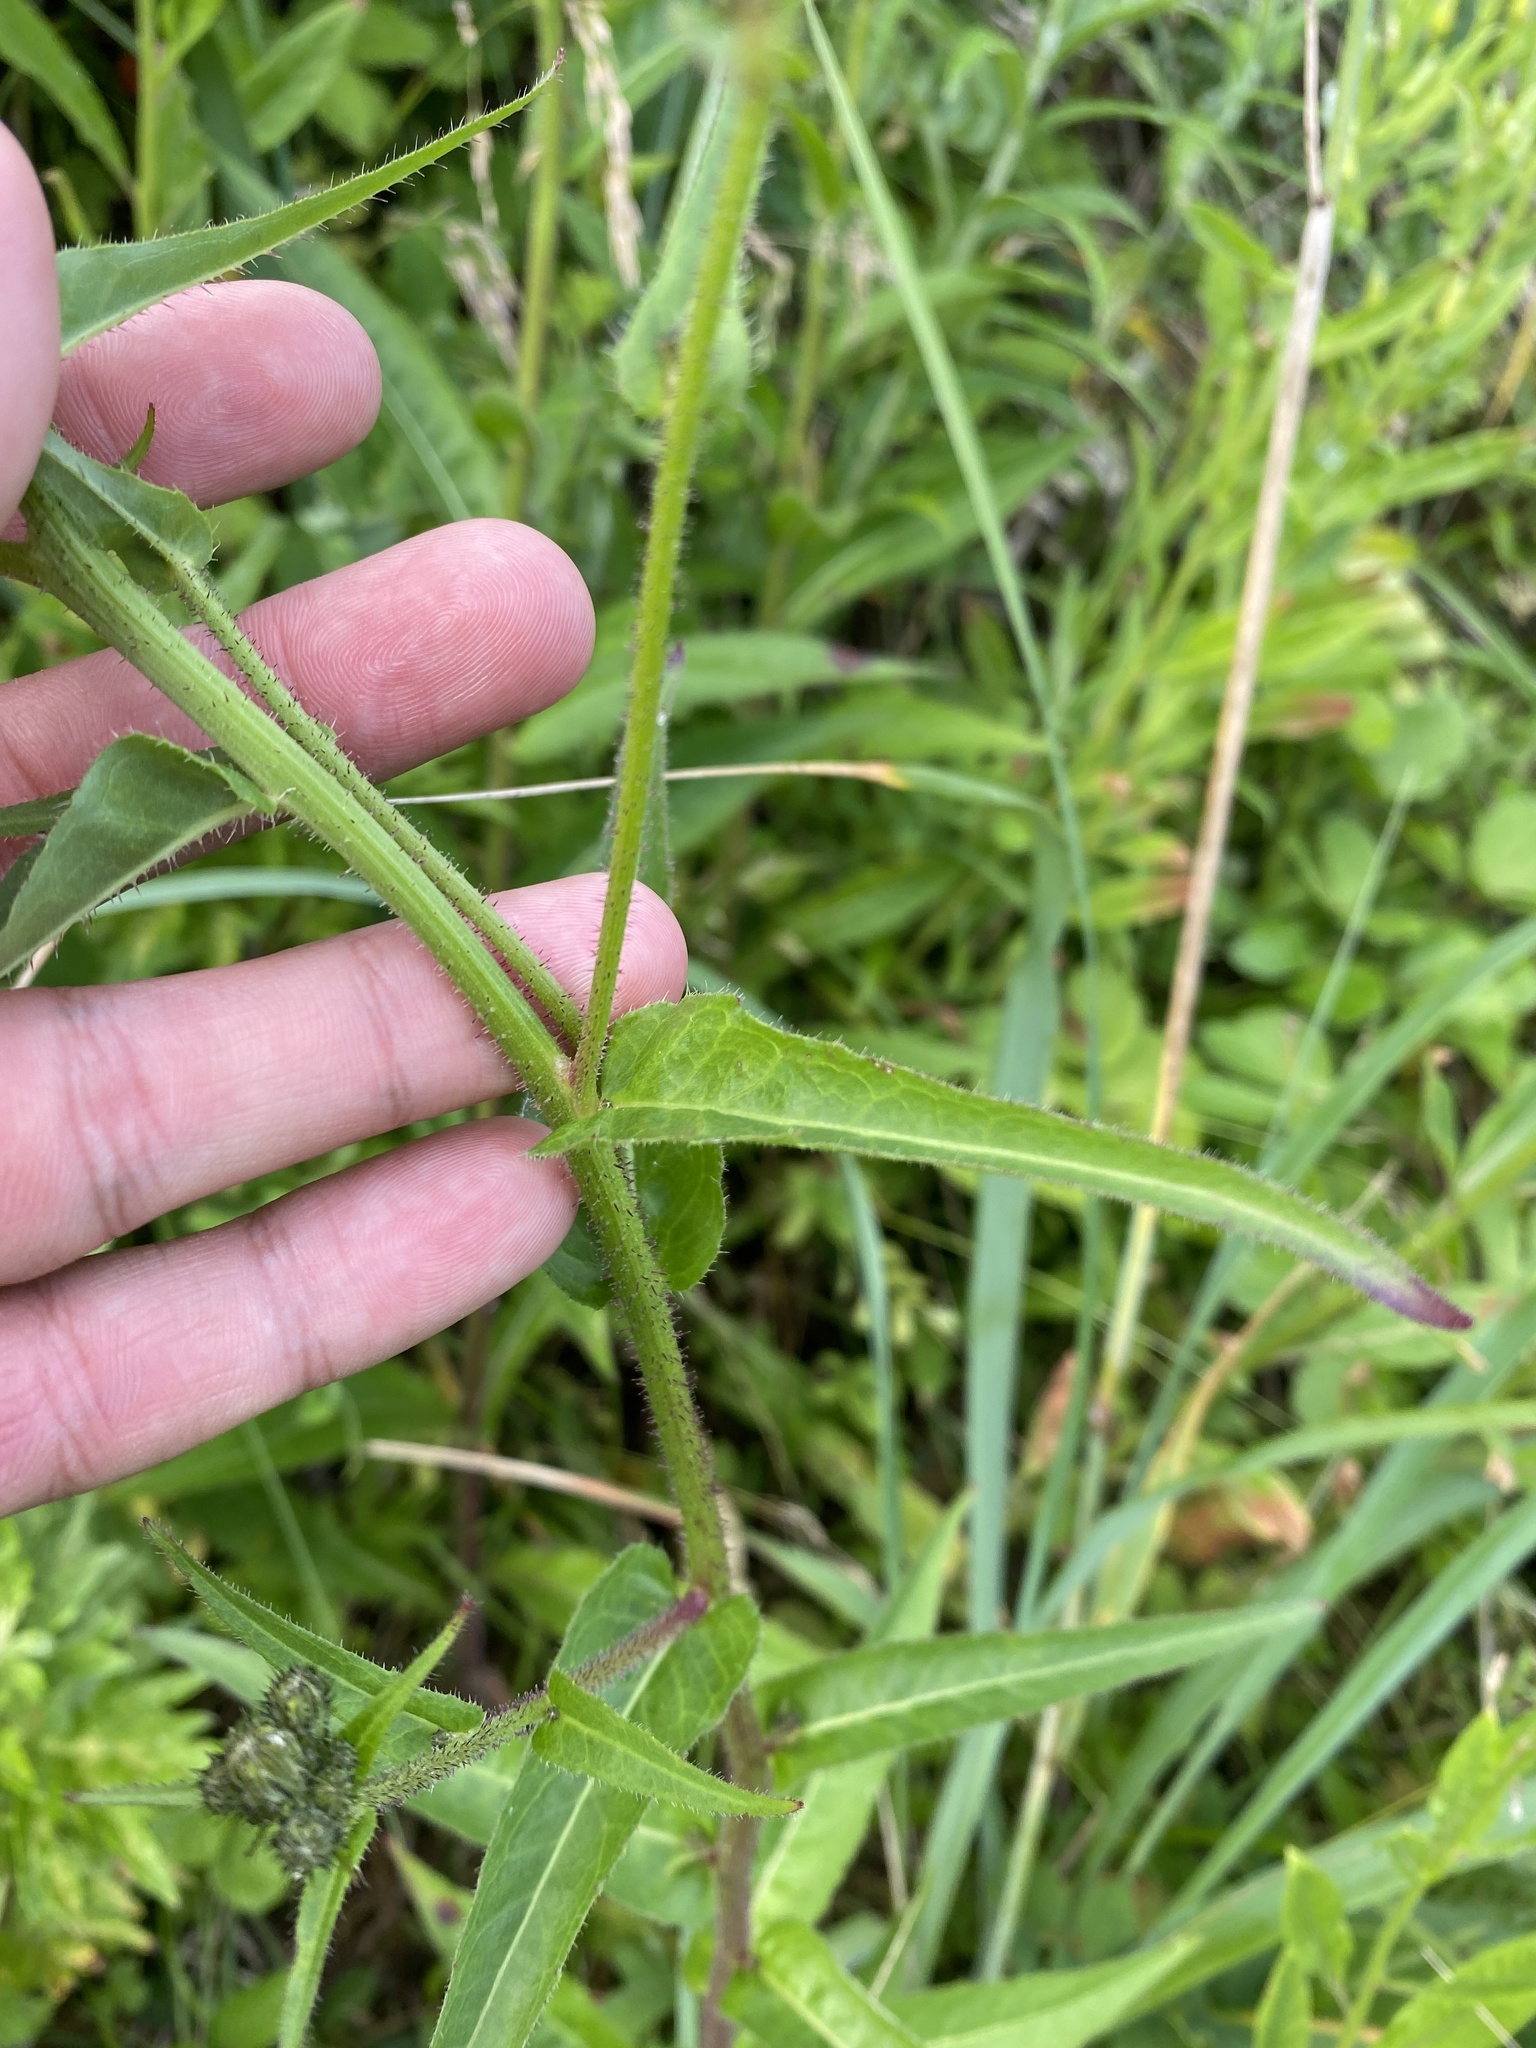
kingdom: Plantae
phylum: Tracheophyta
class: Magnoliopsida
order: Asterales
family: Asteraceae
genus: Picris
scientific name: Picris japonica
